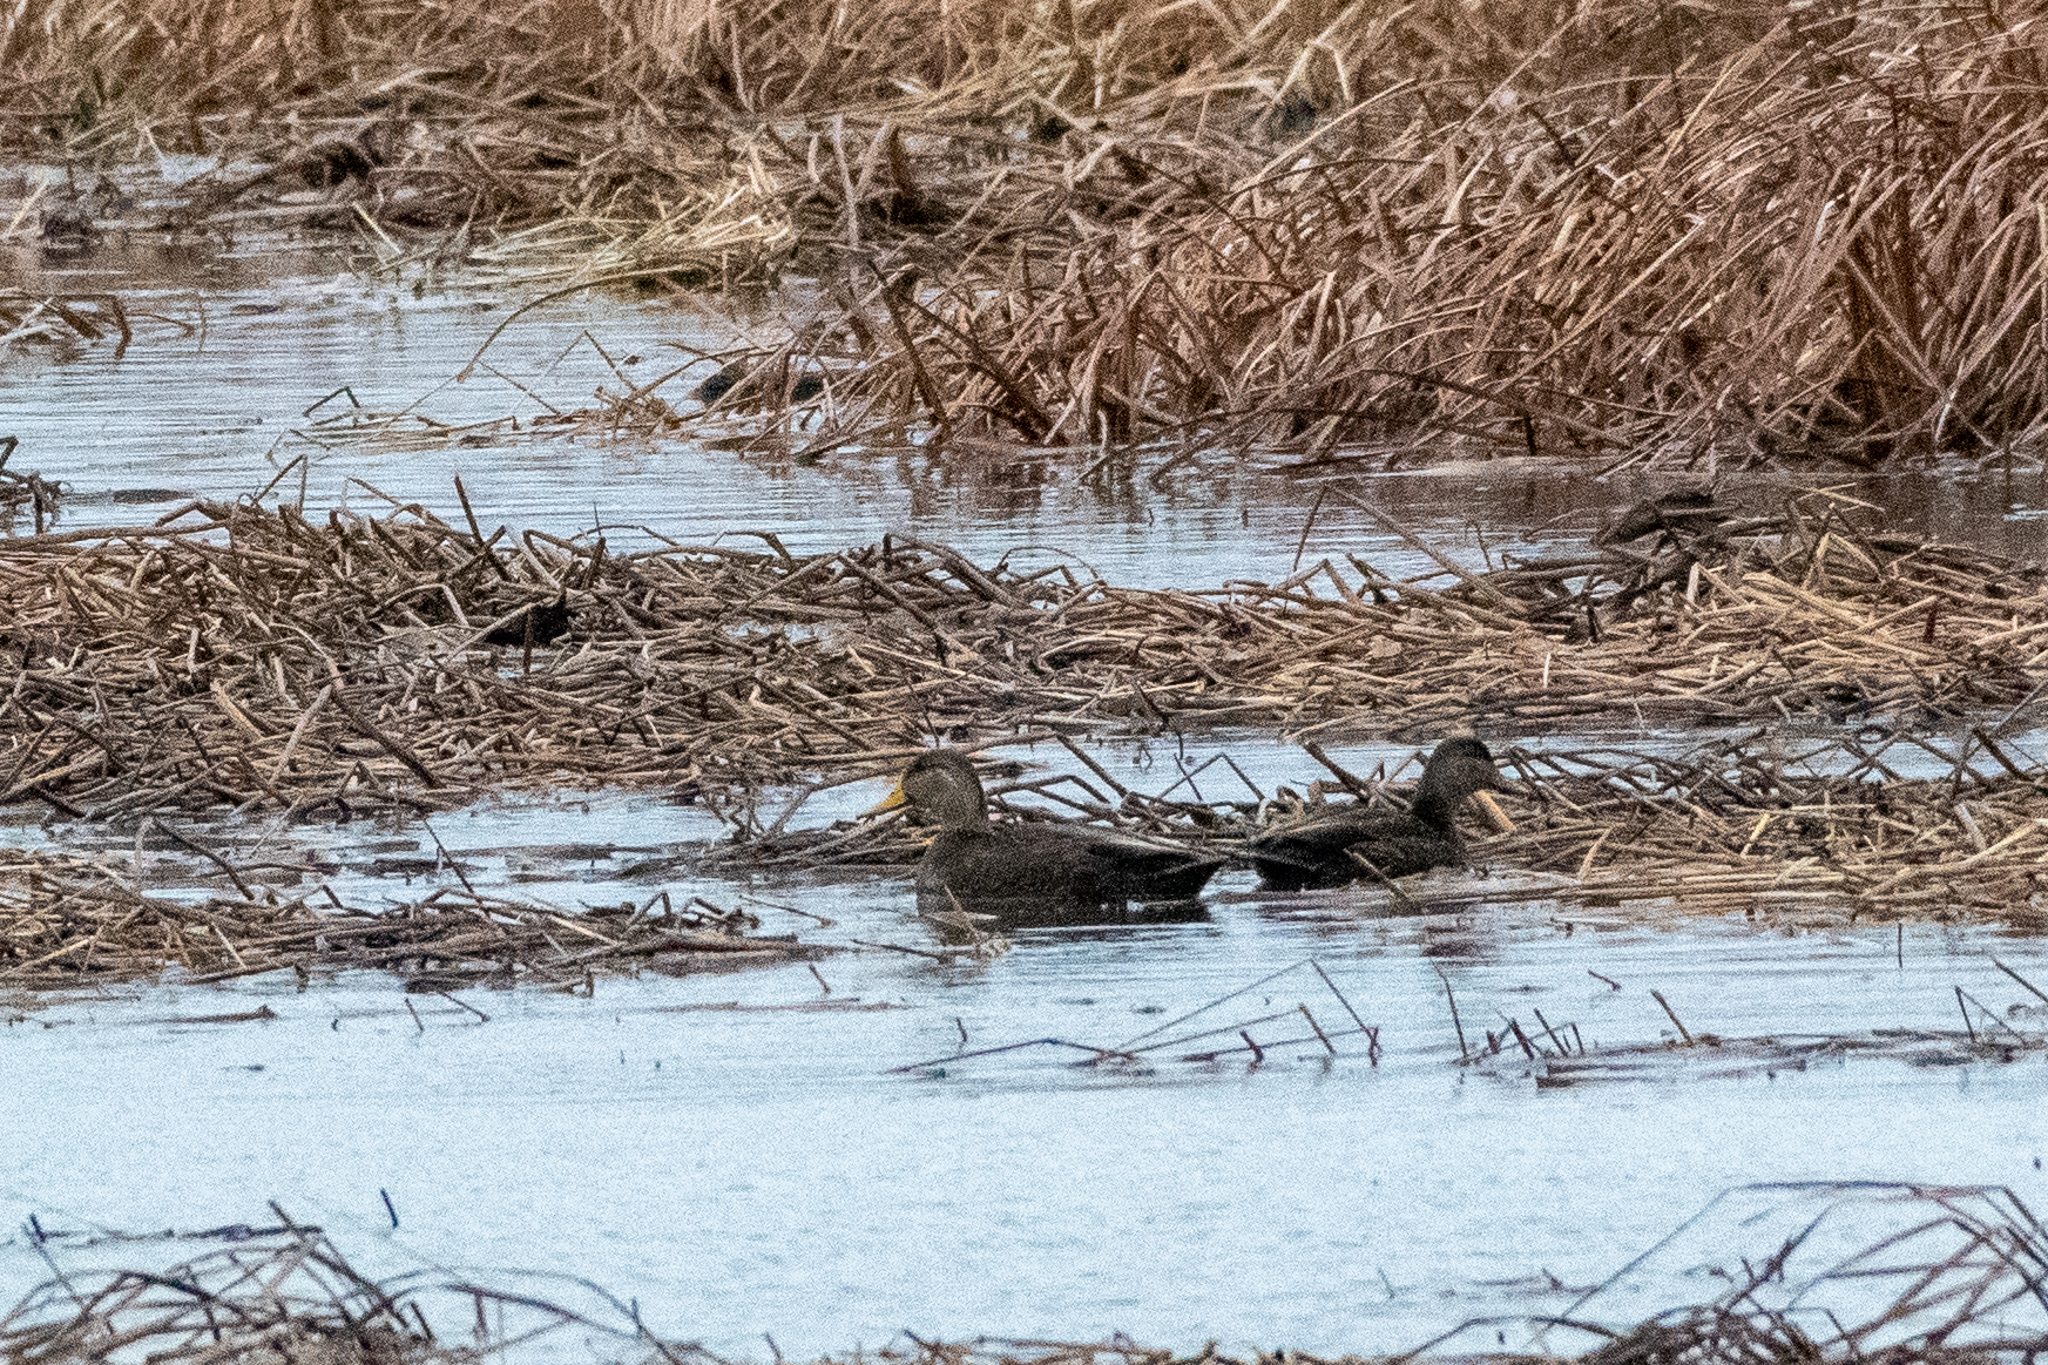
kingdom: Animalia
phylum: Chordata
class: Aves
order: Anseriformes
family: Anatidae
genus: Anas
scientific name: Anas rubripes
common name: American black duck
